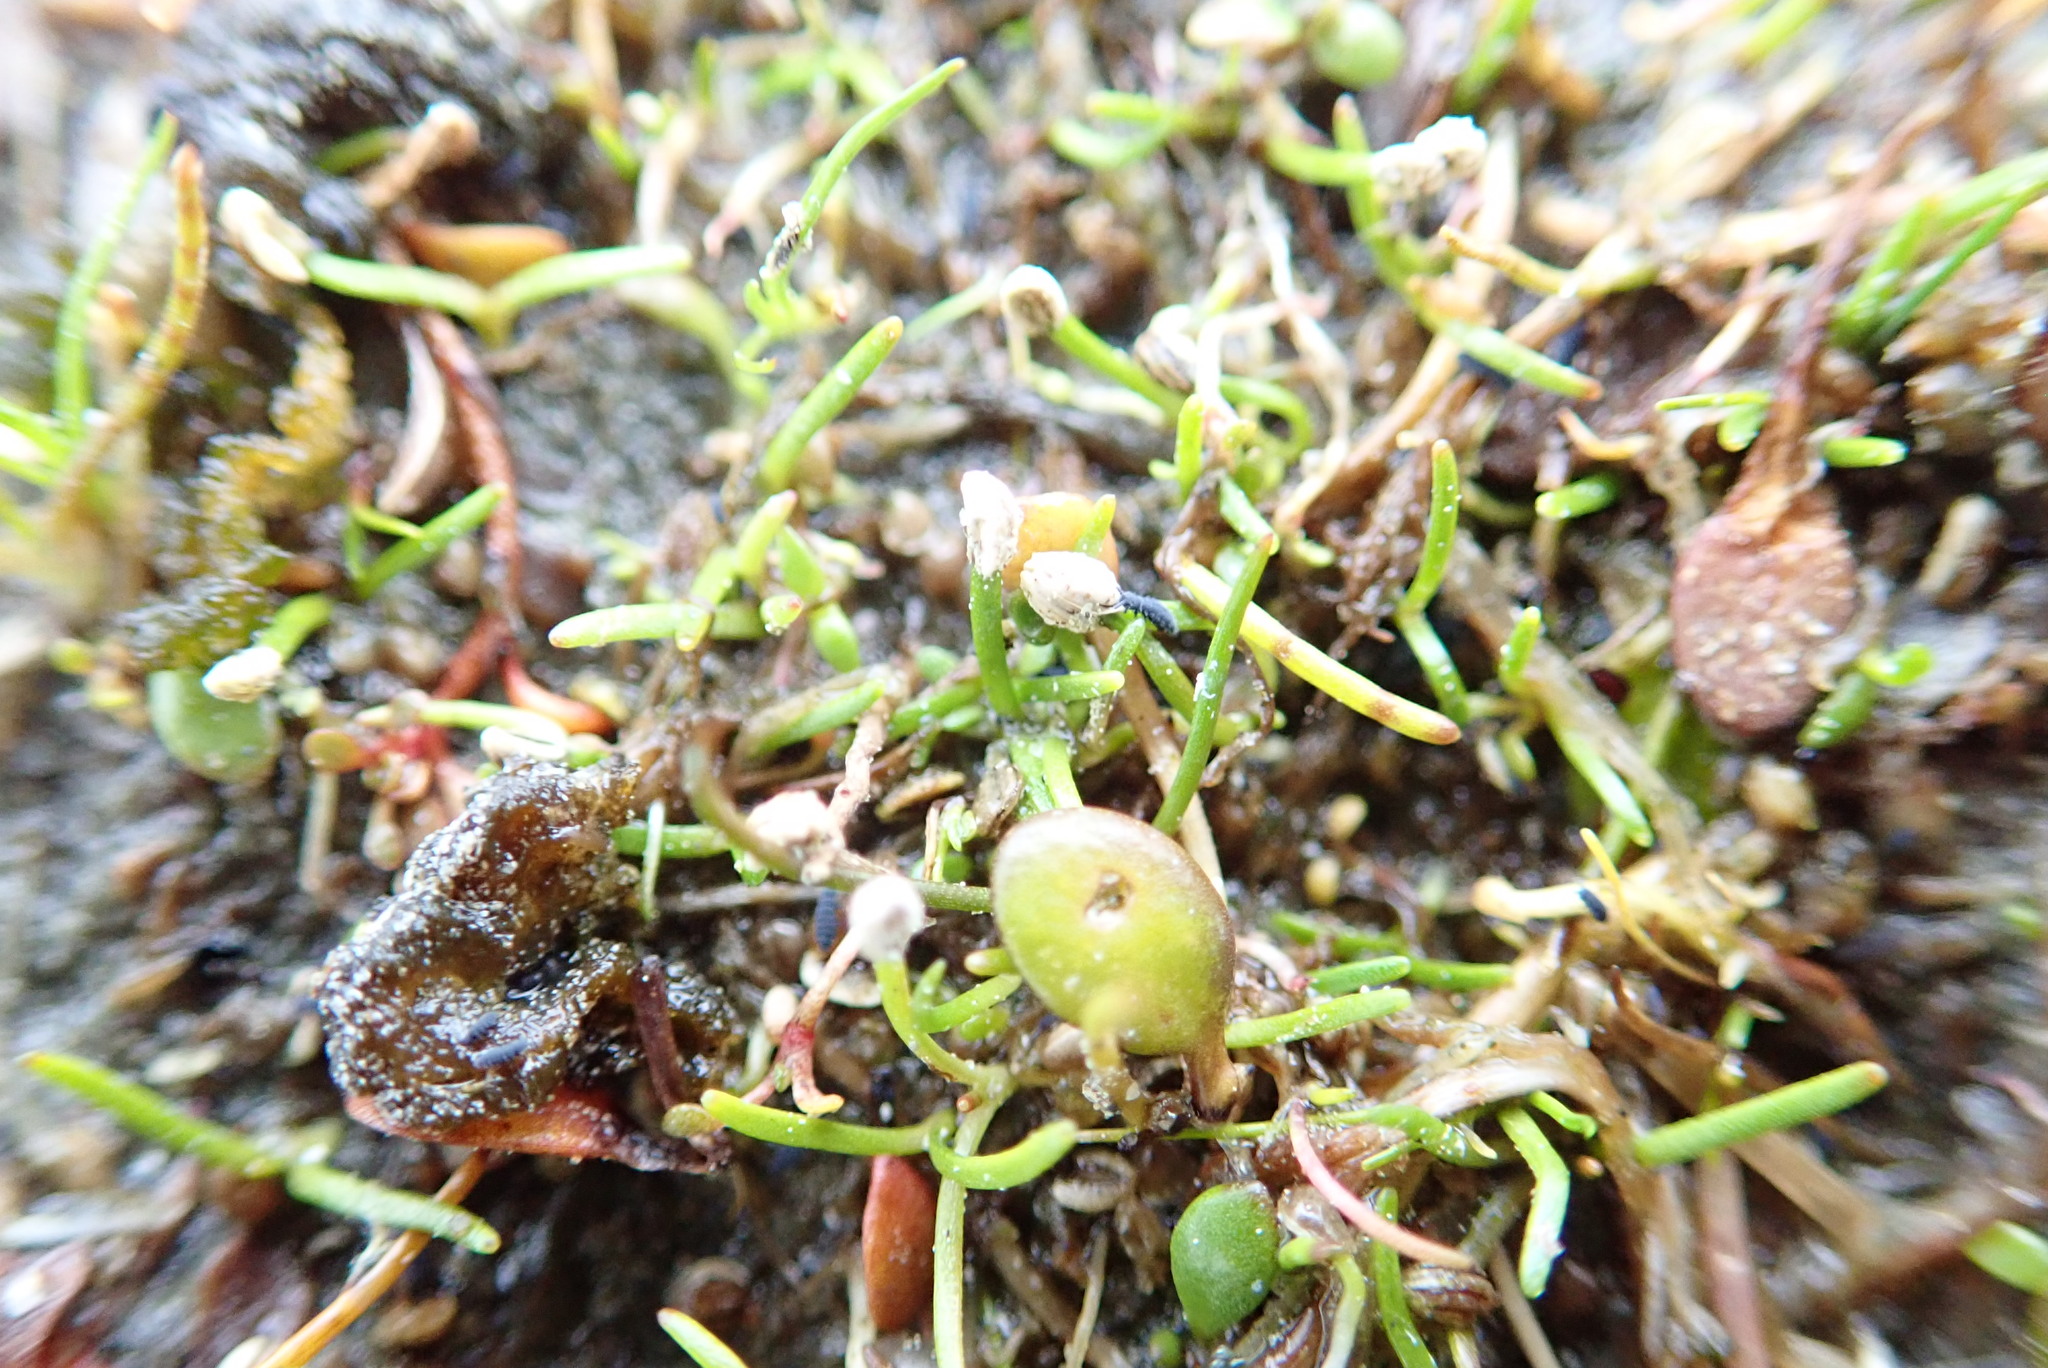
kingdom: Plantae
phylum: Tracheophyta
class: Liliopsida
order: Alismatales
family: Juncaginaceae
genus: Triglochin
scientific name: Triglochin striata
